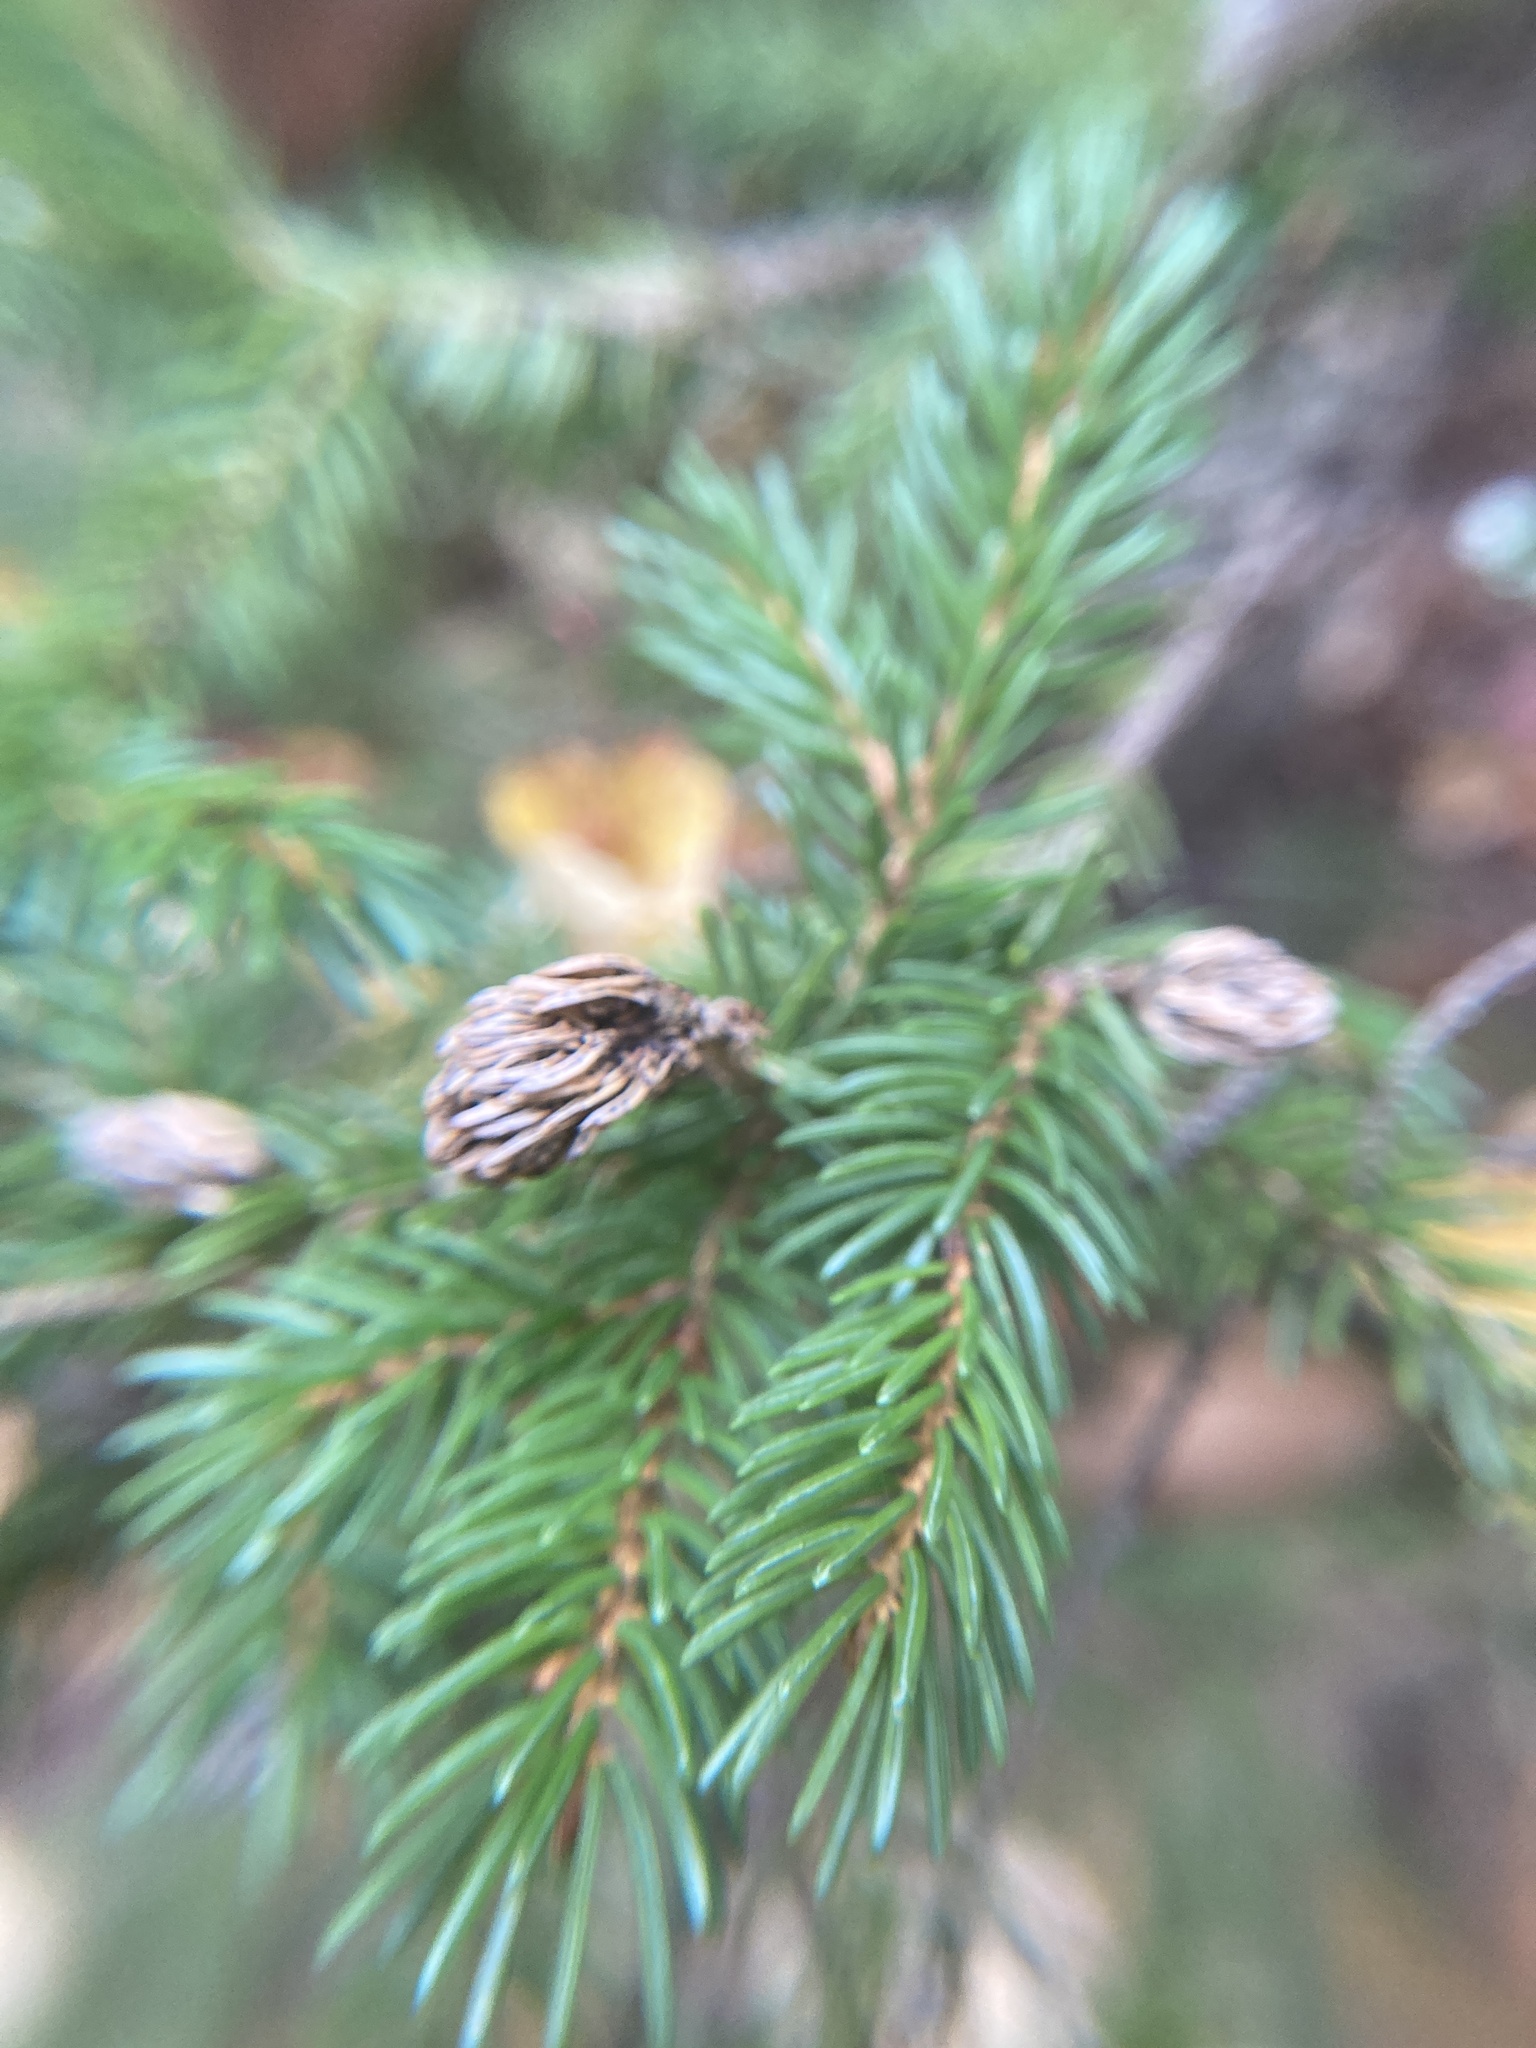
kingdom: Animalia
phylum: Arthropoda
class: Insecta
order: Hemiptera
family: Adelgidae
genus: Adelges
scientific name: Adelges abietis
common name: Eastern spruce gall adelgid
